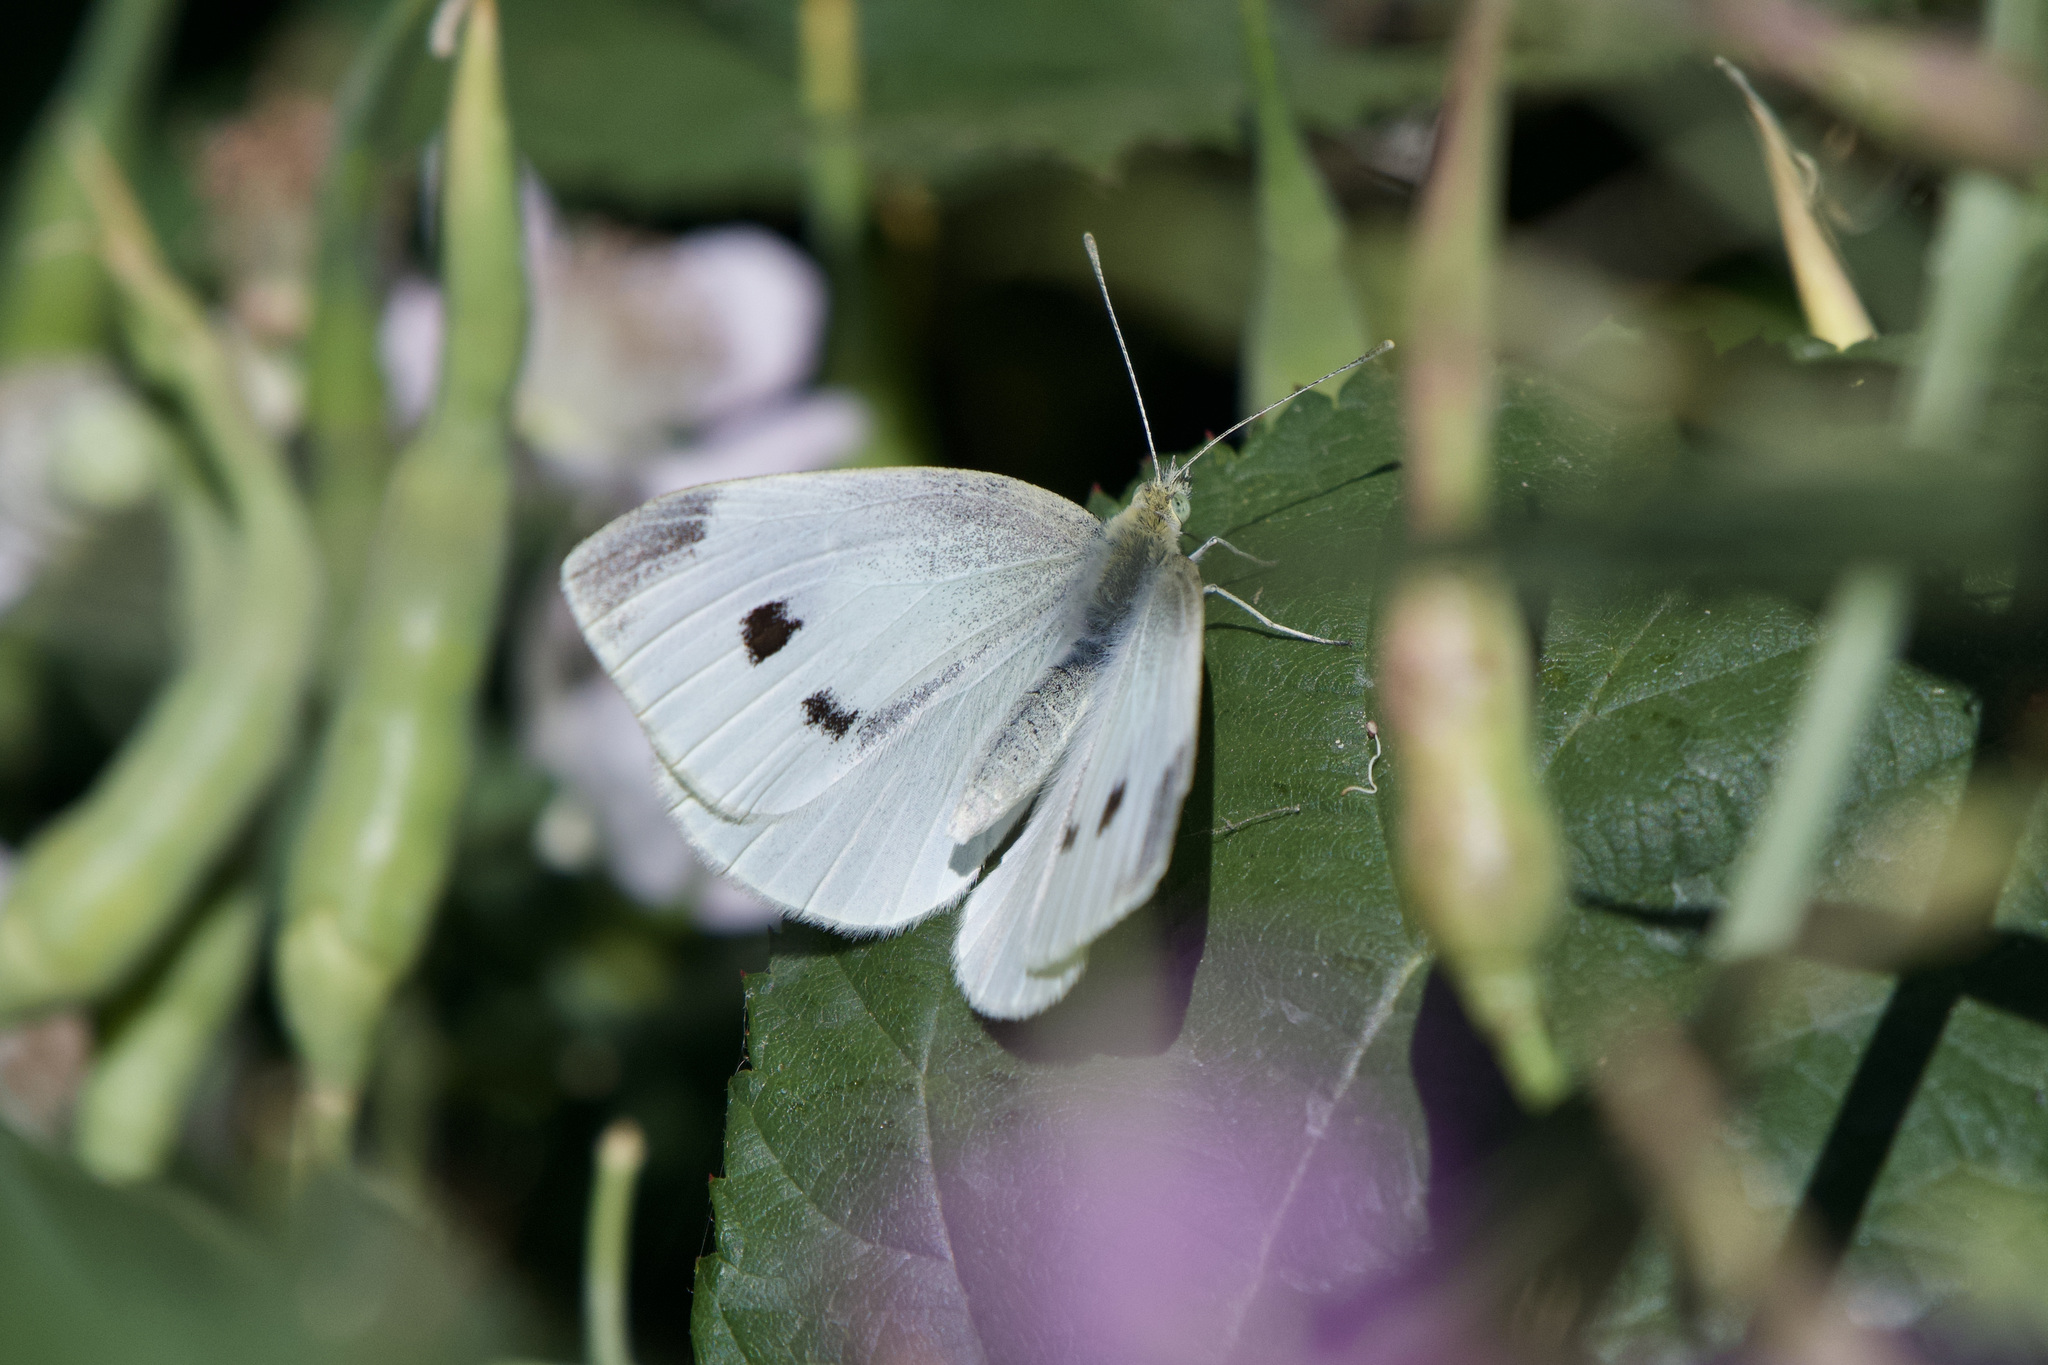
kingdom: Animalia
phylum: Arthropoda
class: Insecta
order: Lepidoptera
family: Pieridae
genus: Pieris
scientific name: Pieris rapae
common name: Small white
